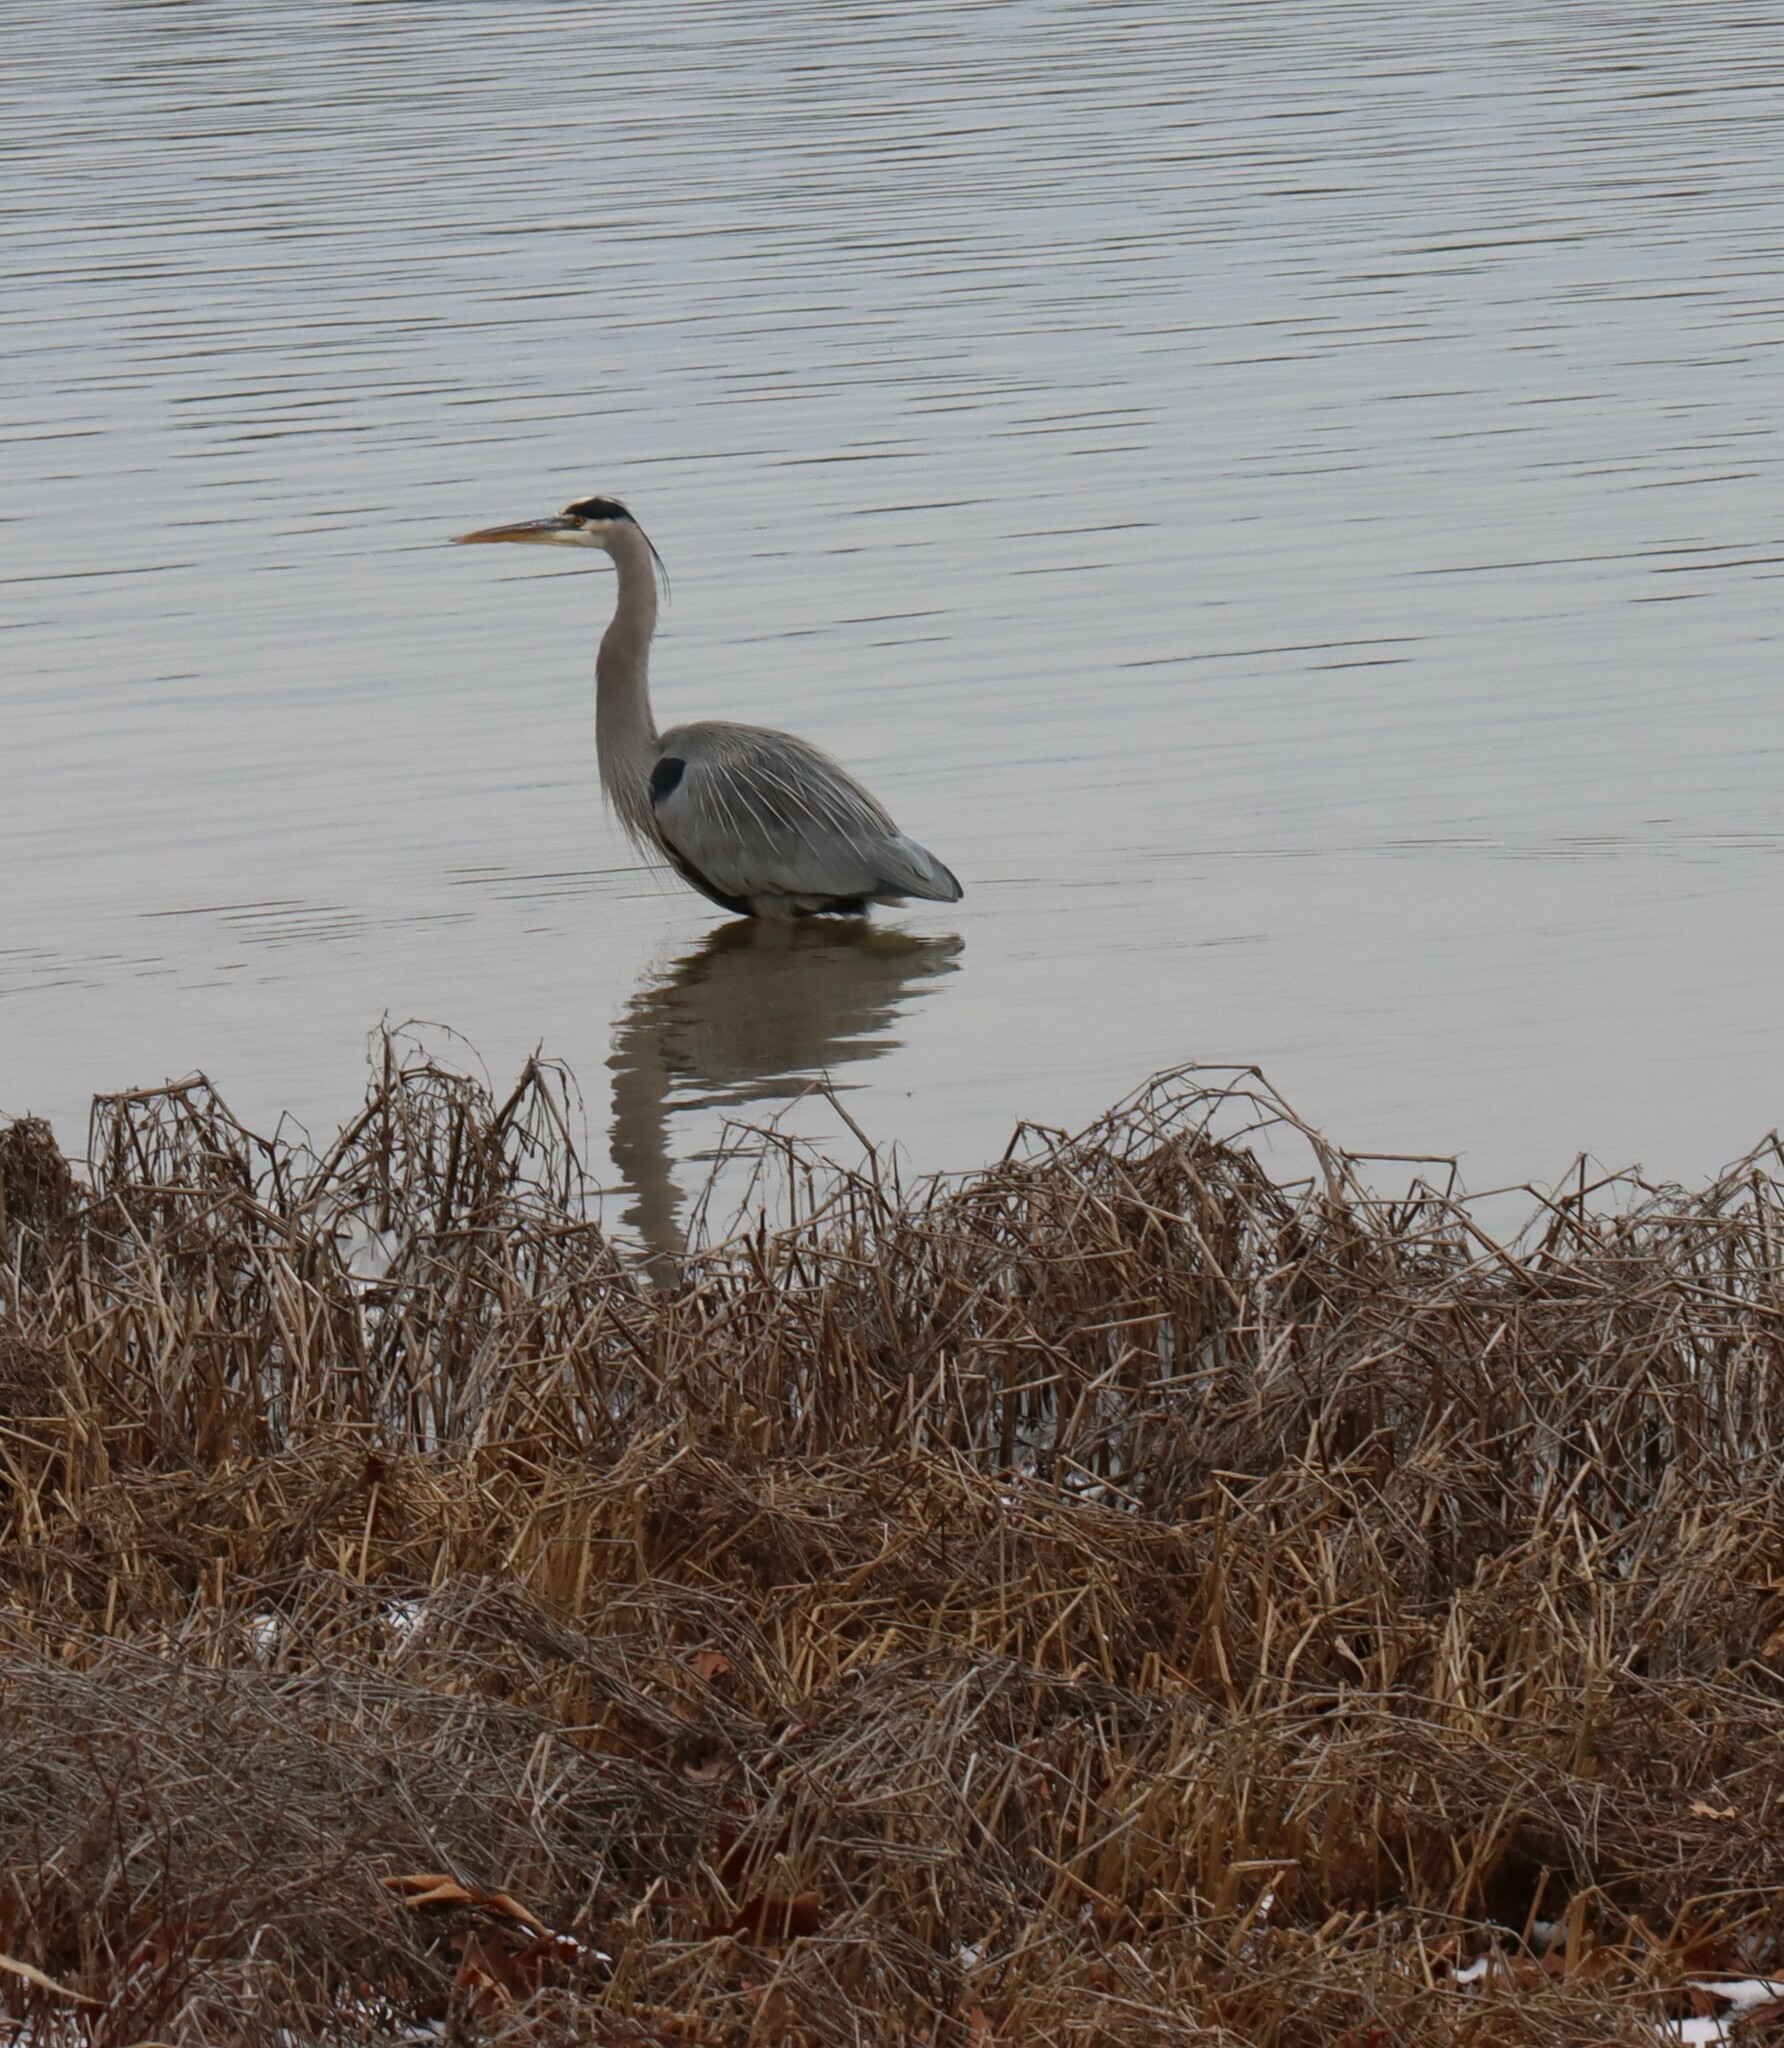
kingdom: Animalia
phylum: Chordata
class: Aves
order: Pelecaniformes
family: Ardeidae
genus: Ardea
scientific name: Ardea herodias
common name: Great blue heron
